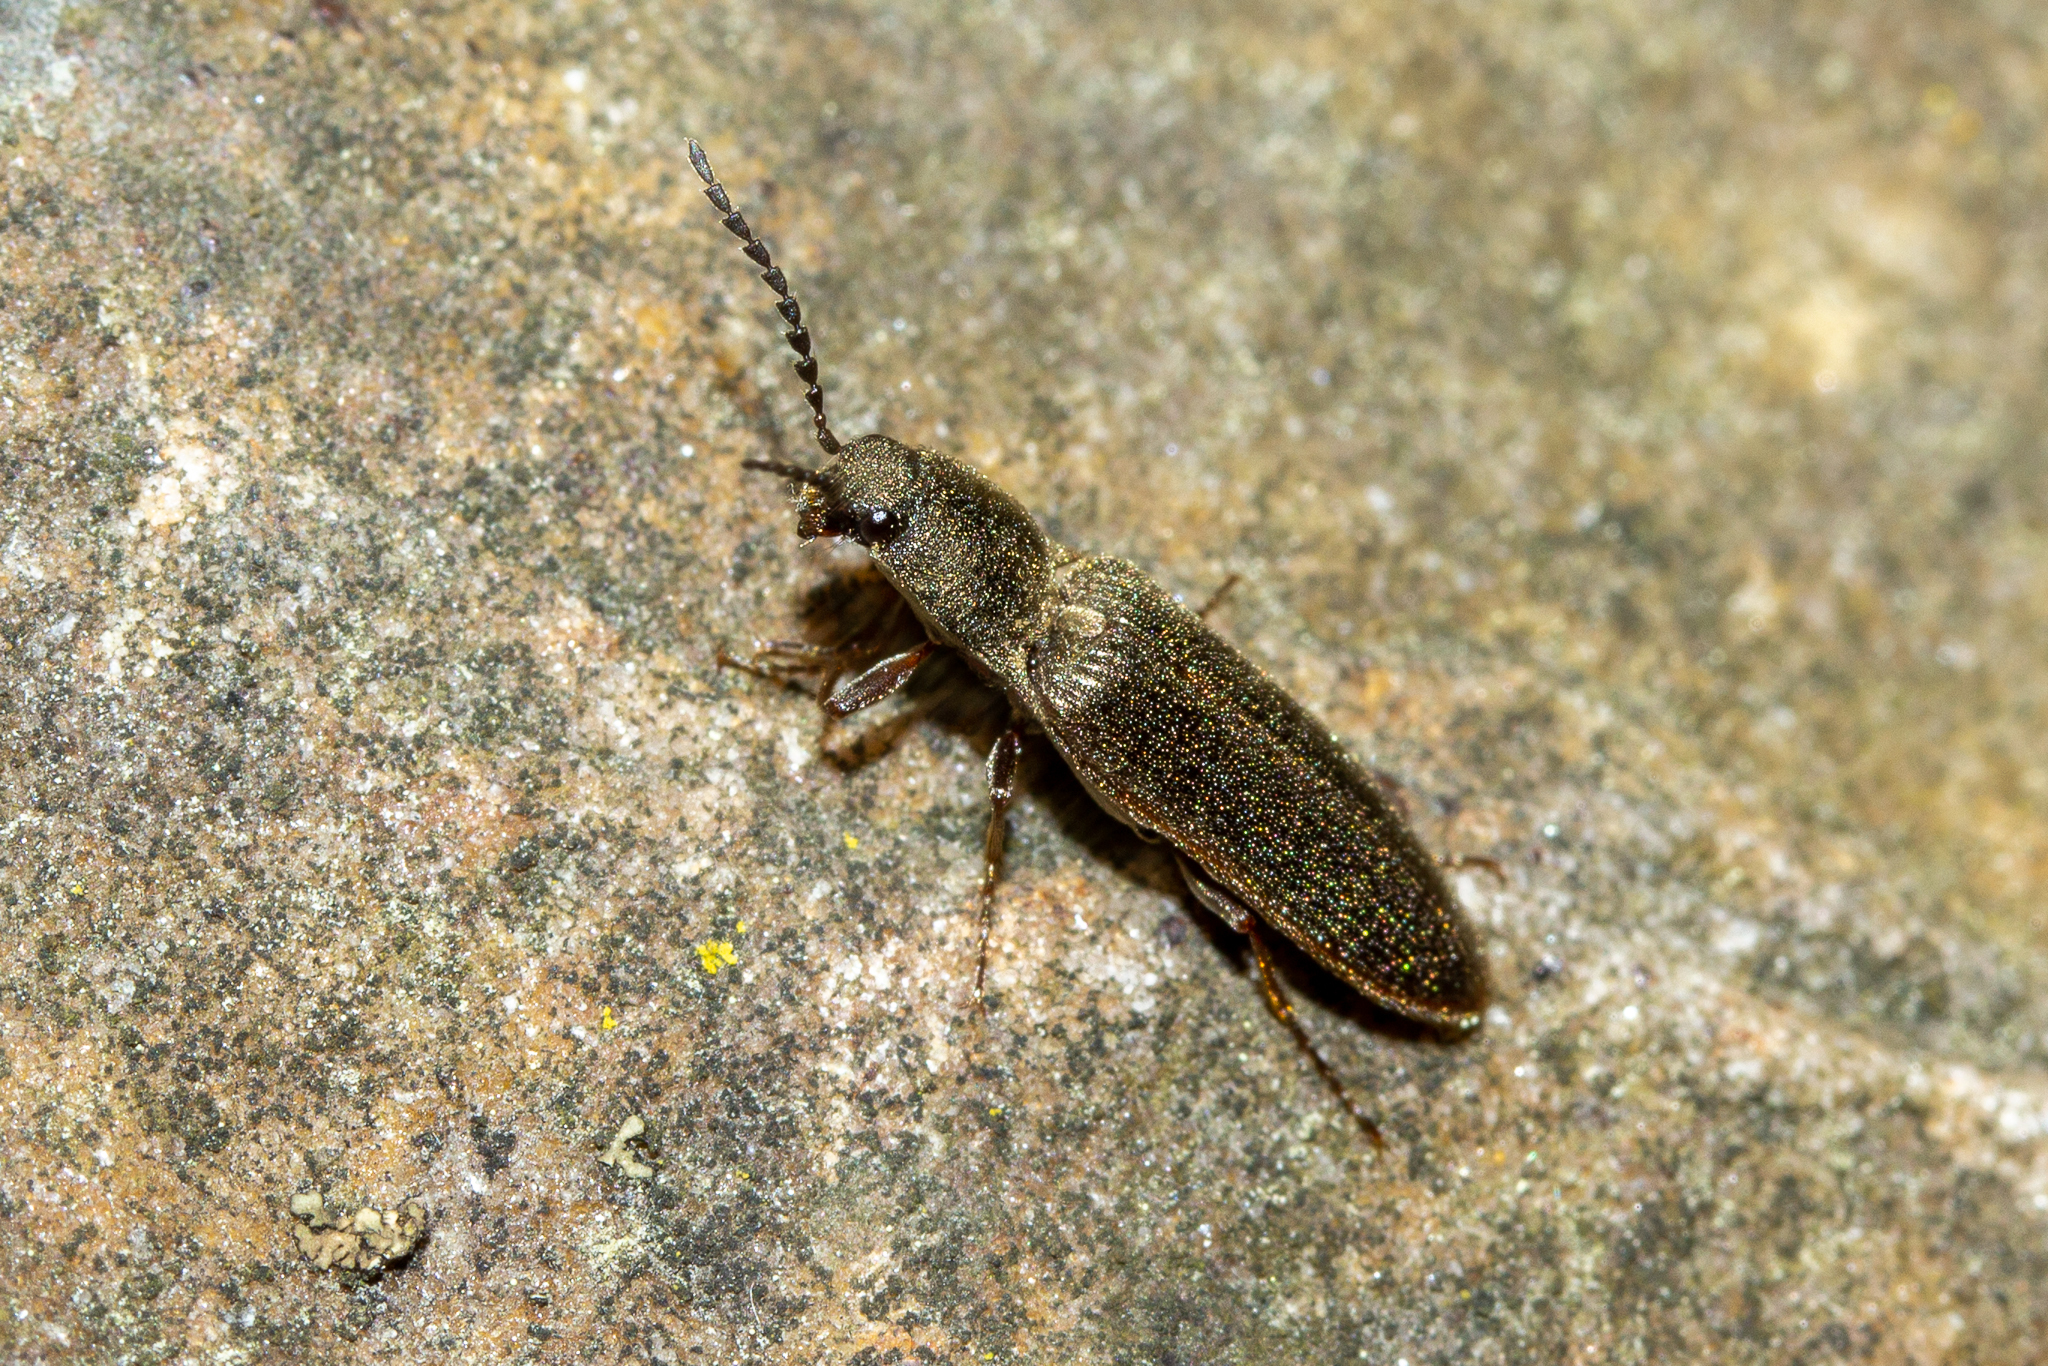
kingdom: Animalia
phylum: Arthropoda
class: Insecta
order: Coleoptera
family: Elateridae
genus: Sylvanelater
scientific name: Sylvanelater cylindriformis
